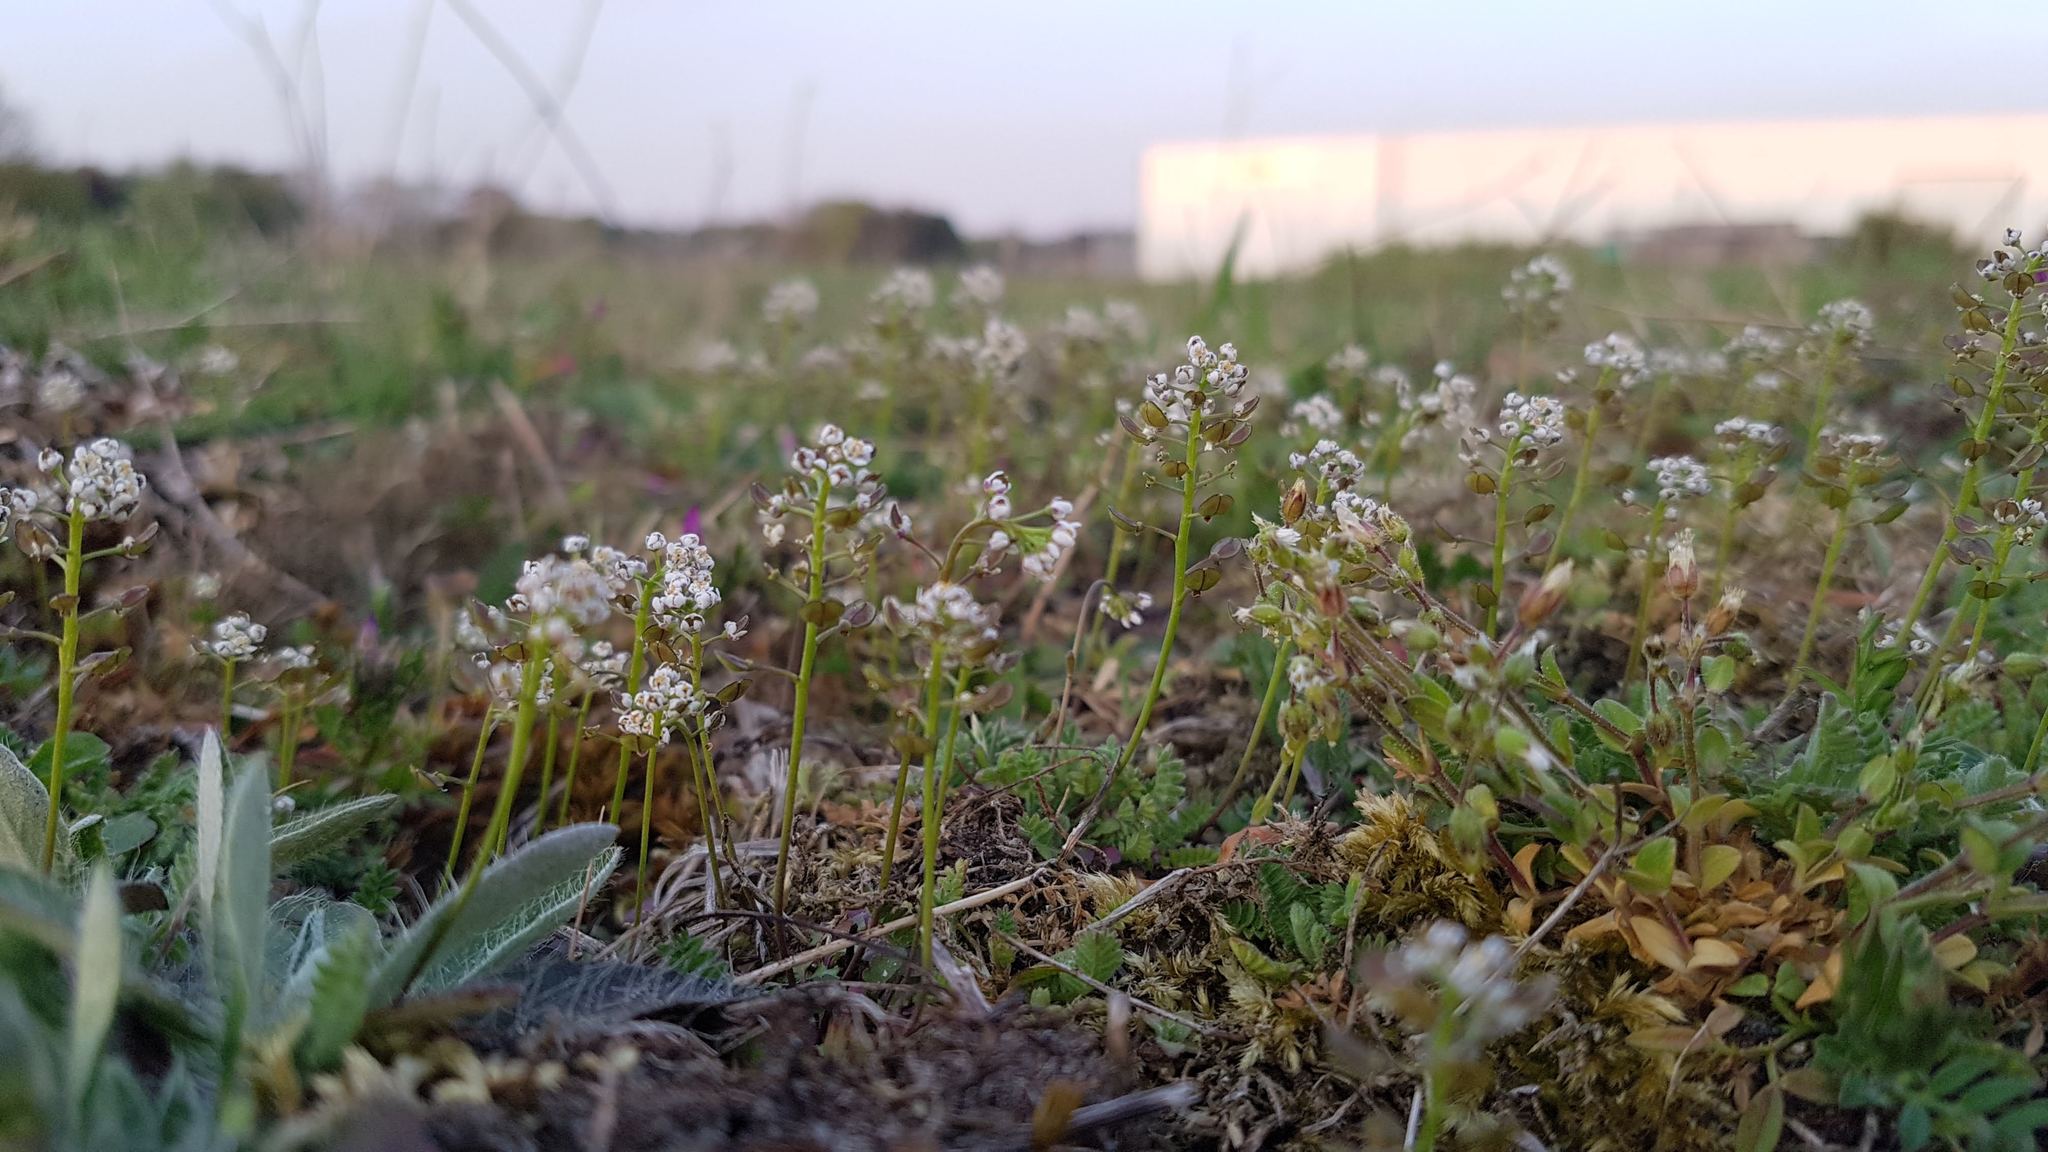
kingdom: Plantae
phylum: Tracheophyta
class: Magnoliopsida
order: Brassicales
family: Brassicaceae
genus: Teesdalia
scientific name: Teesdalia nudicaulis
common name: Shepherd's cress
